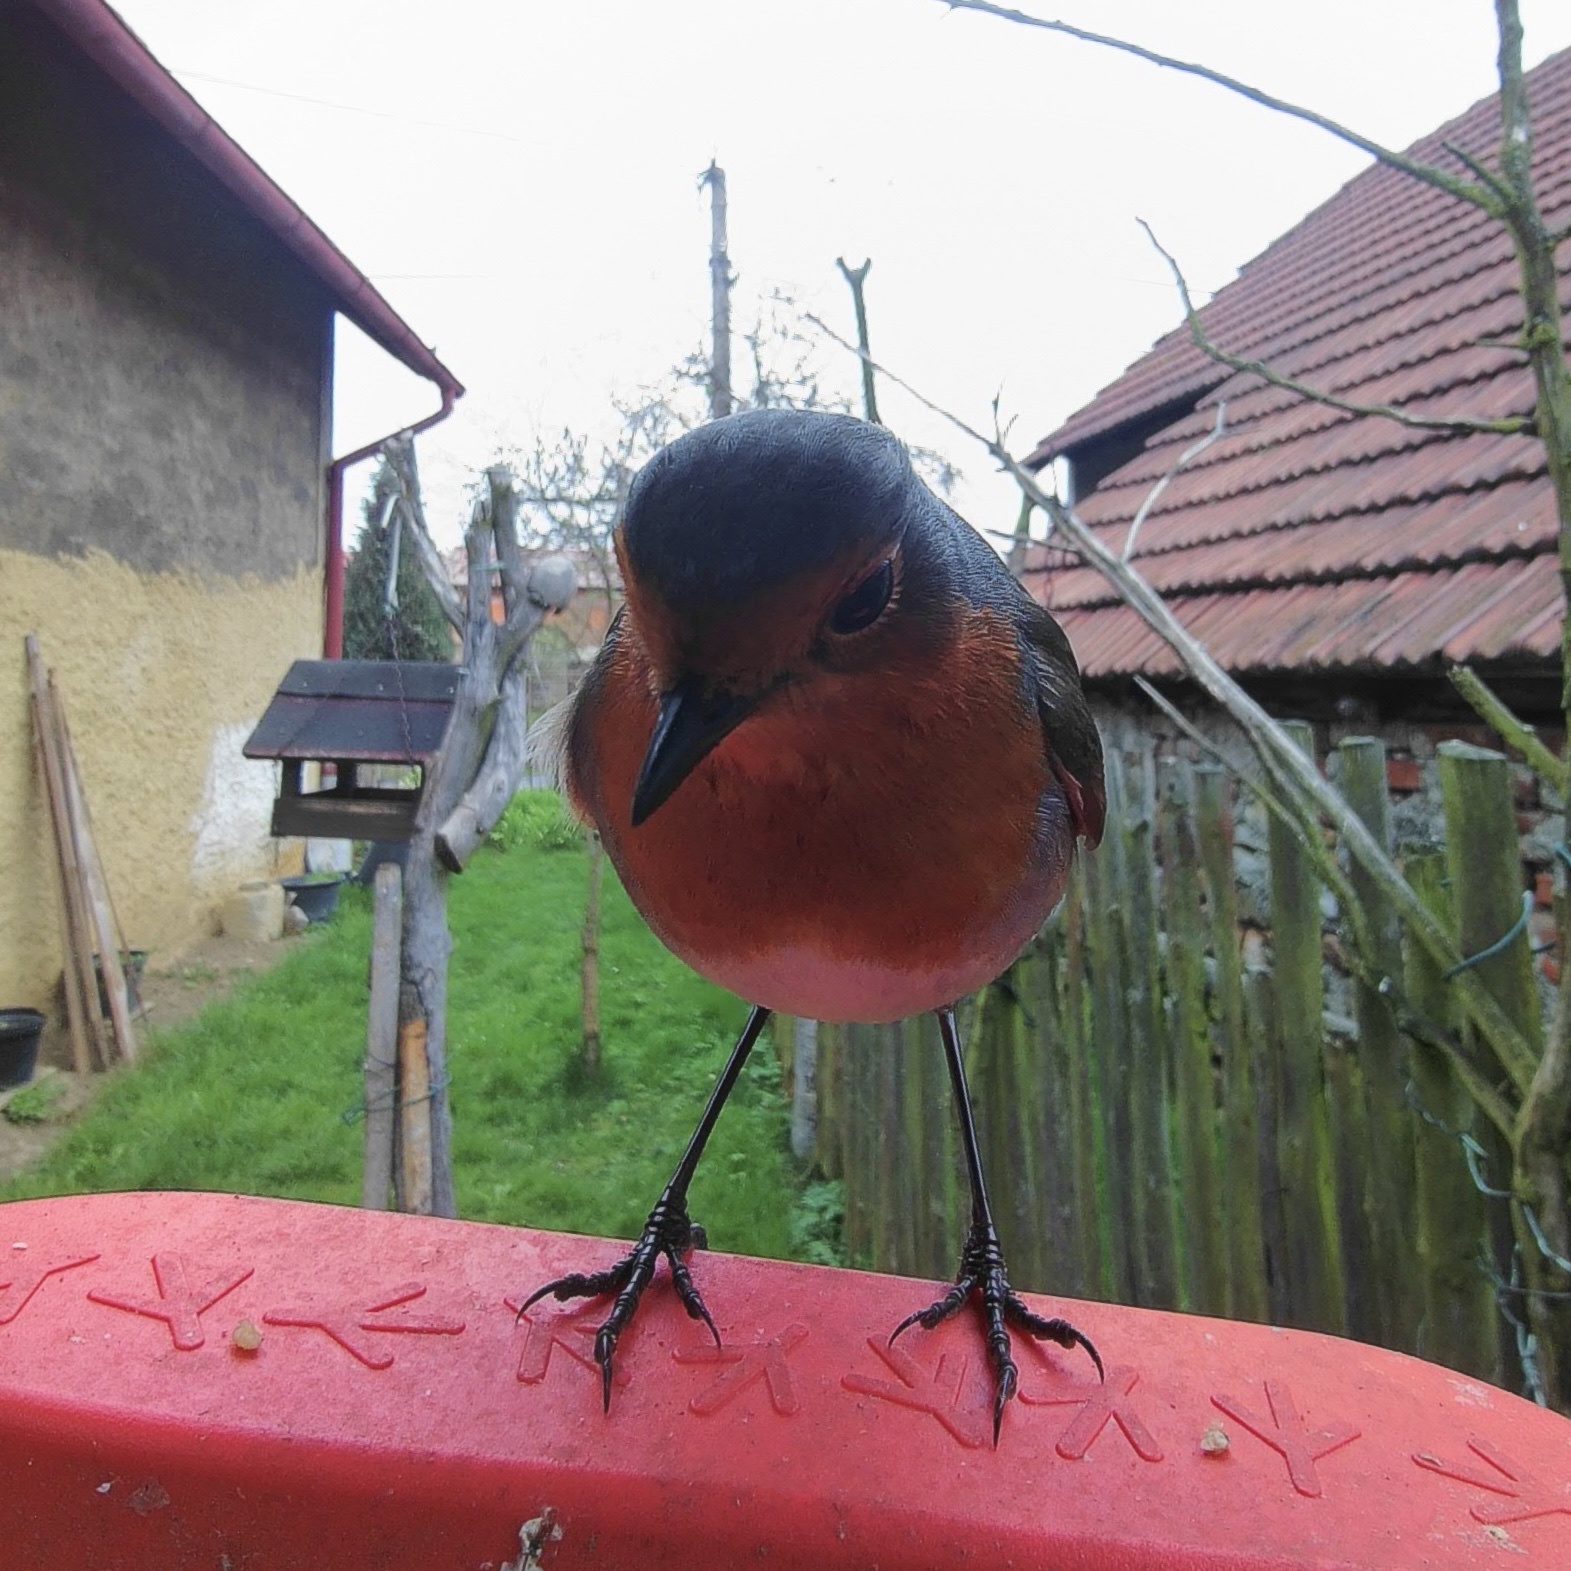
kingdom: Animalia
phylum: Chordata
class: Aves
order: Passeriformes
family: Muscicapidae
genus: Erithacus
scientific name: Erithacus rubecula
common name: European robin
